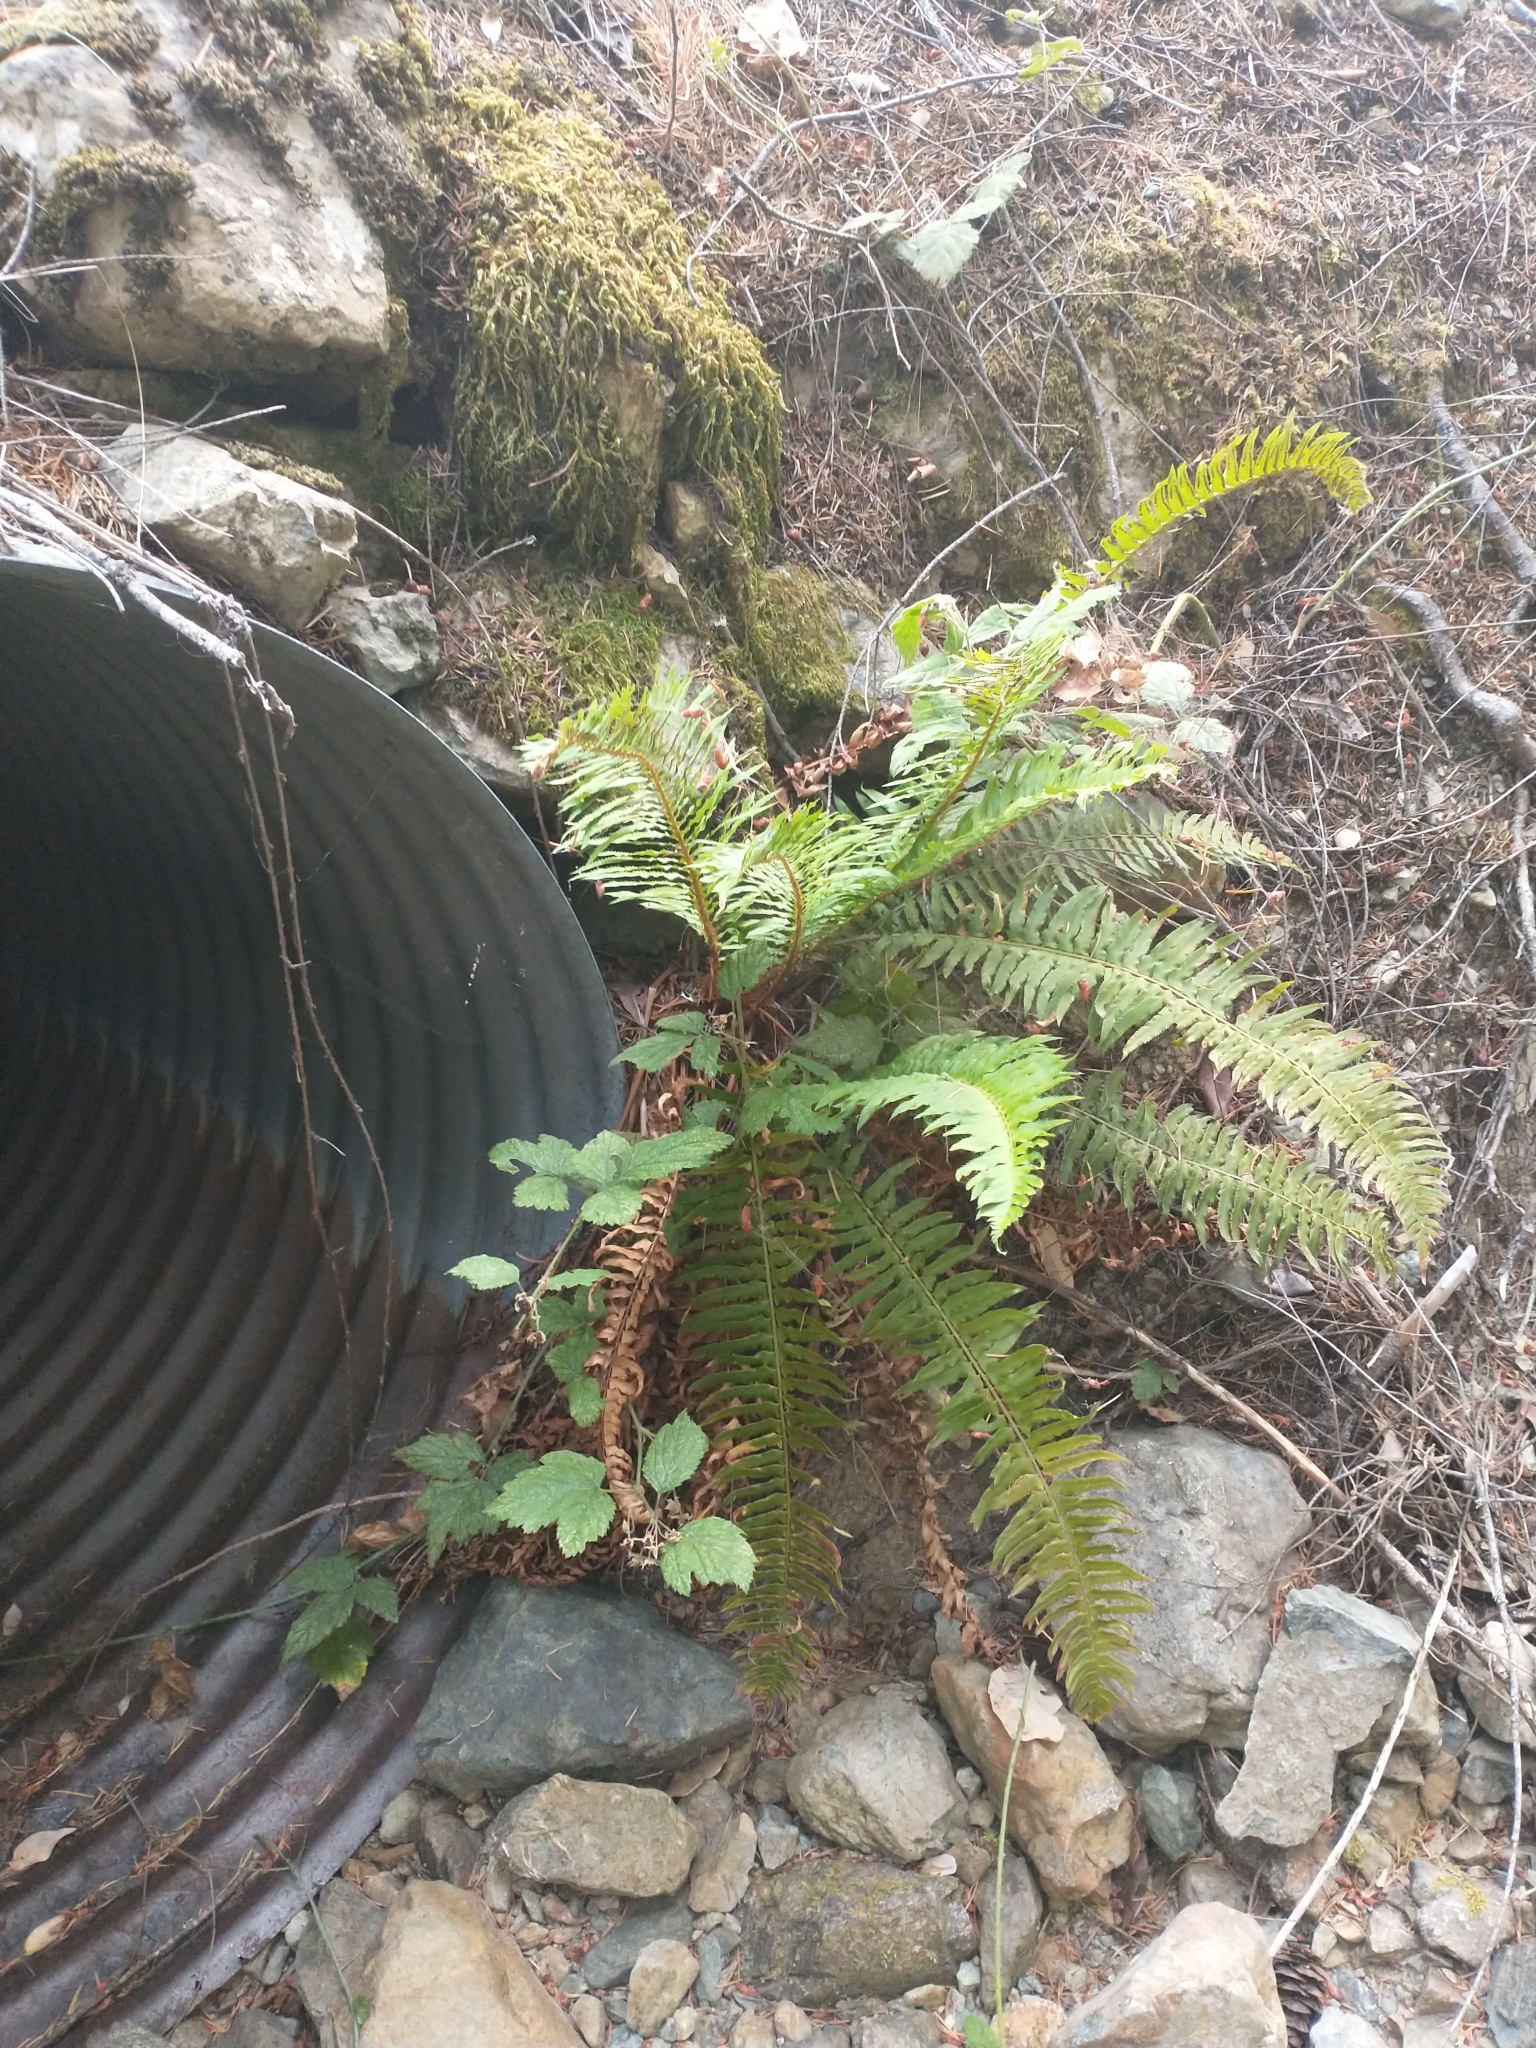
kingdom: Plantae
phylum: Tracheophyta
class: Polypodiopsida
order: Polypodiales
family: Dryopteridaceae
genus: Polystichum
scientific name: Polystichum munitum
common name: Western sword-fern
